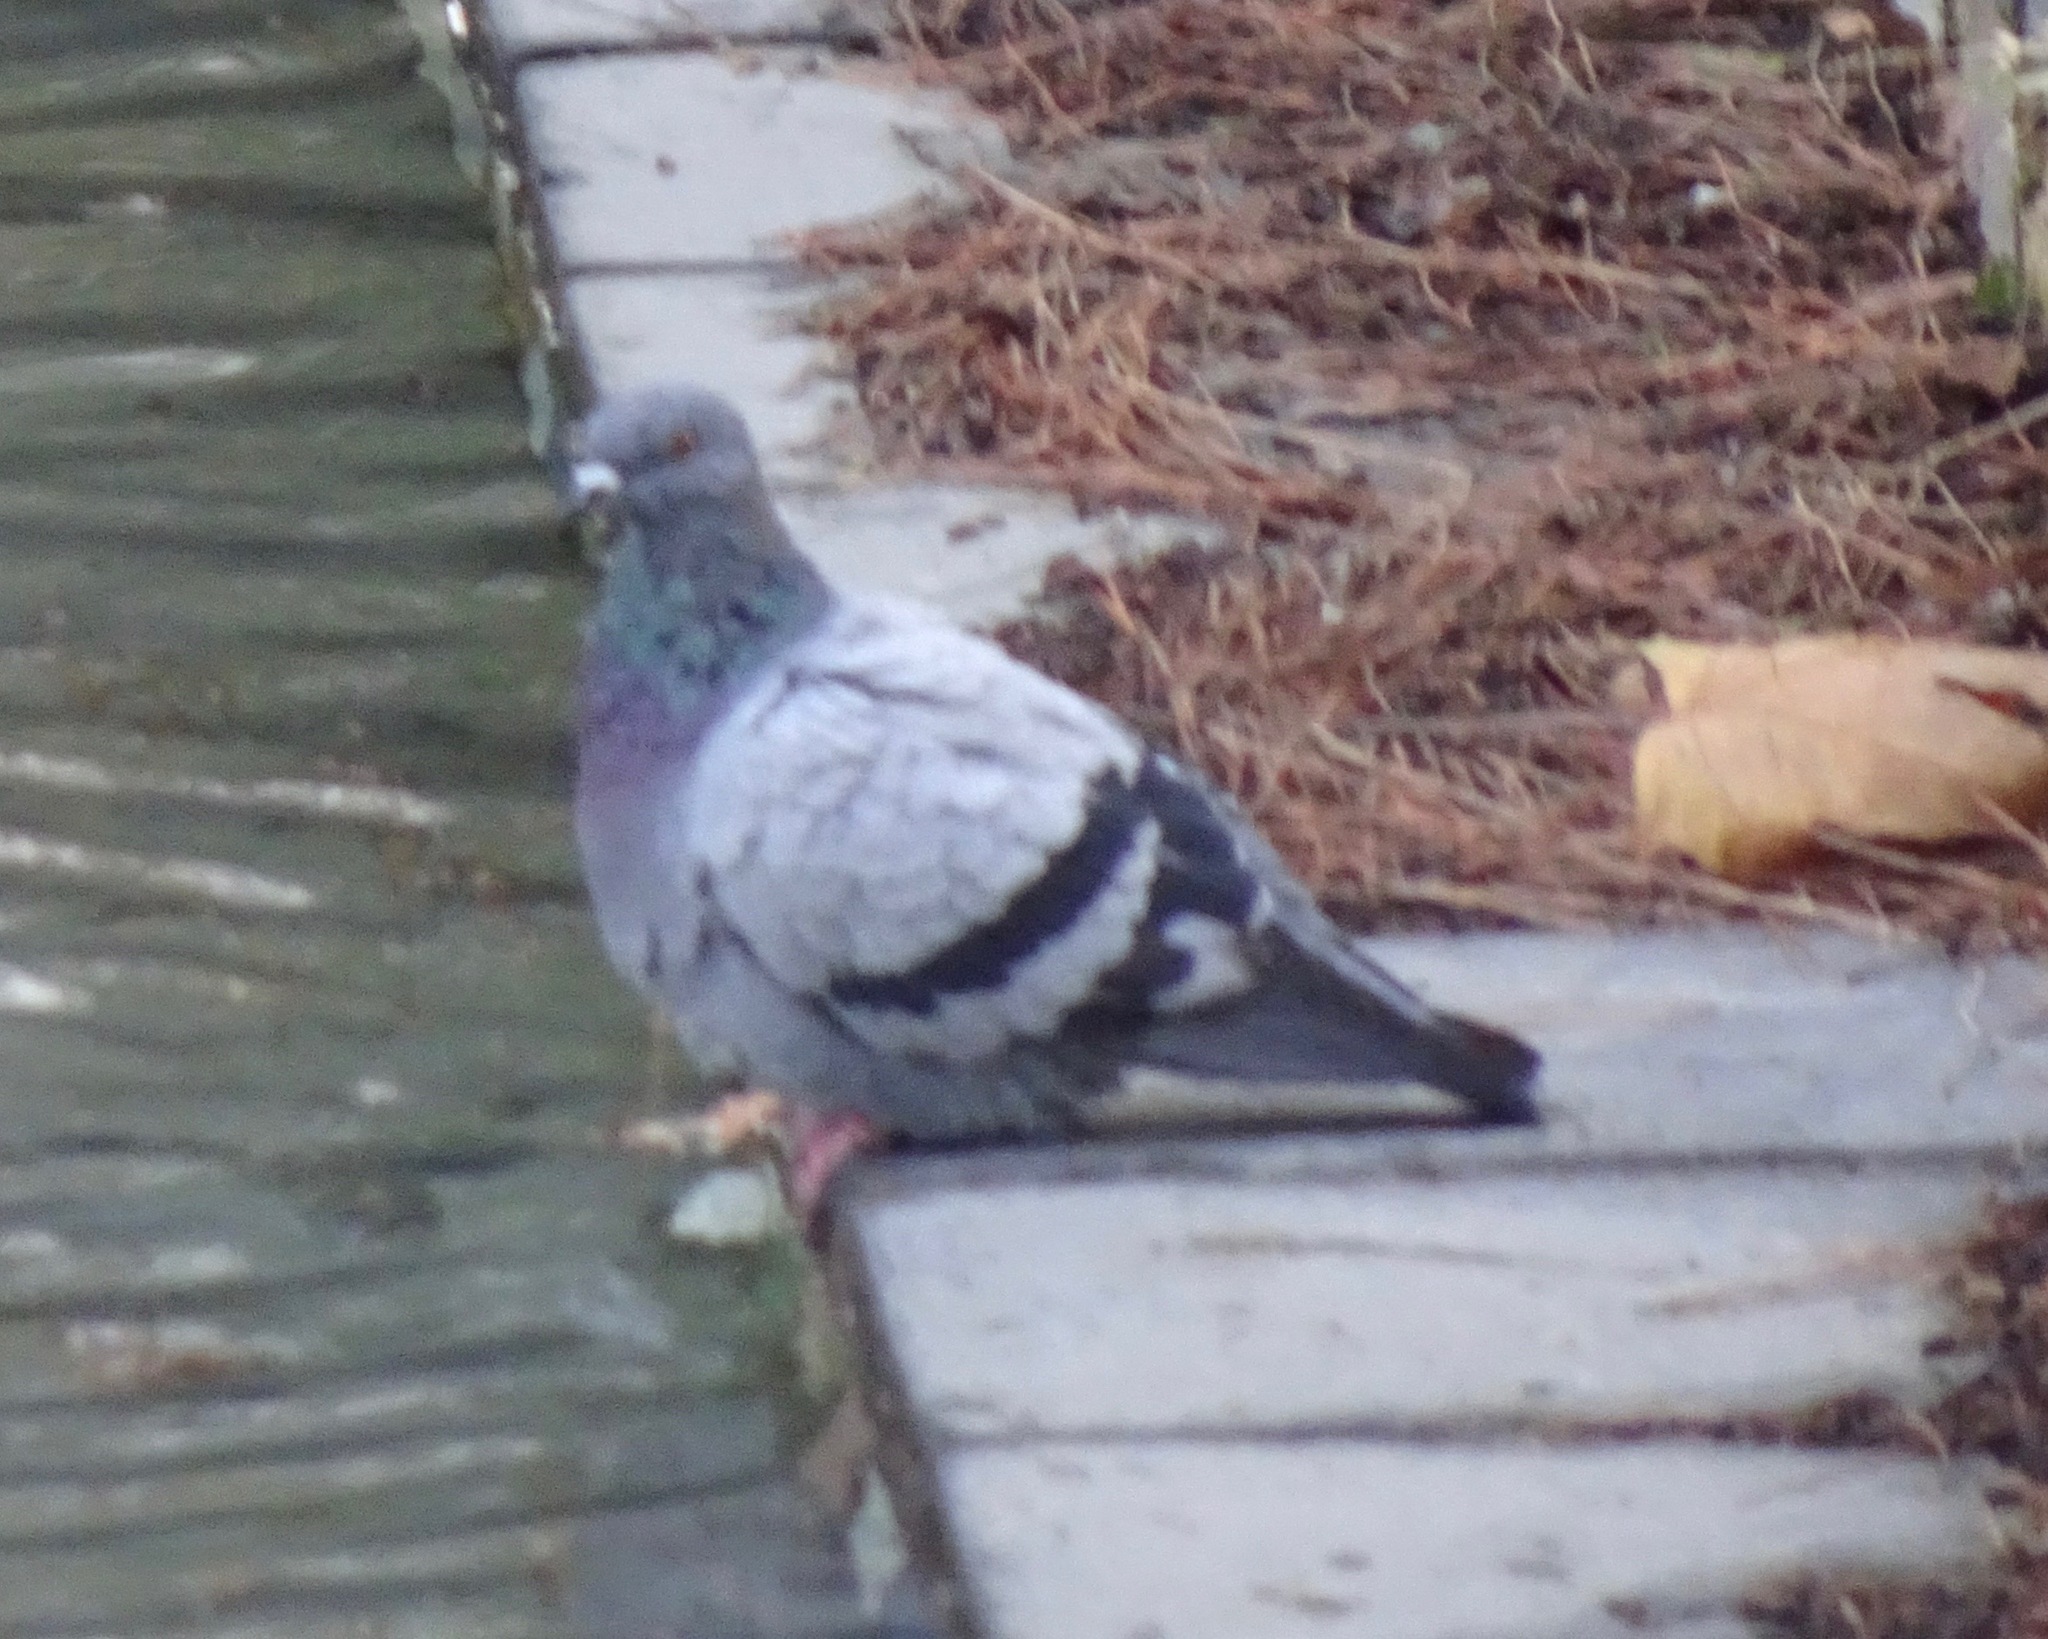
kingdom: Animalia
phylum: Chordata
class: Aves
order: Columbiformes
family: Columbidae
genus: Columba
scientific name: Columba livia
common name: Rock pigeon
